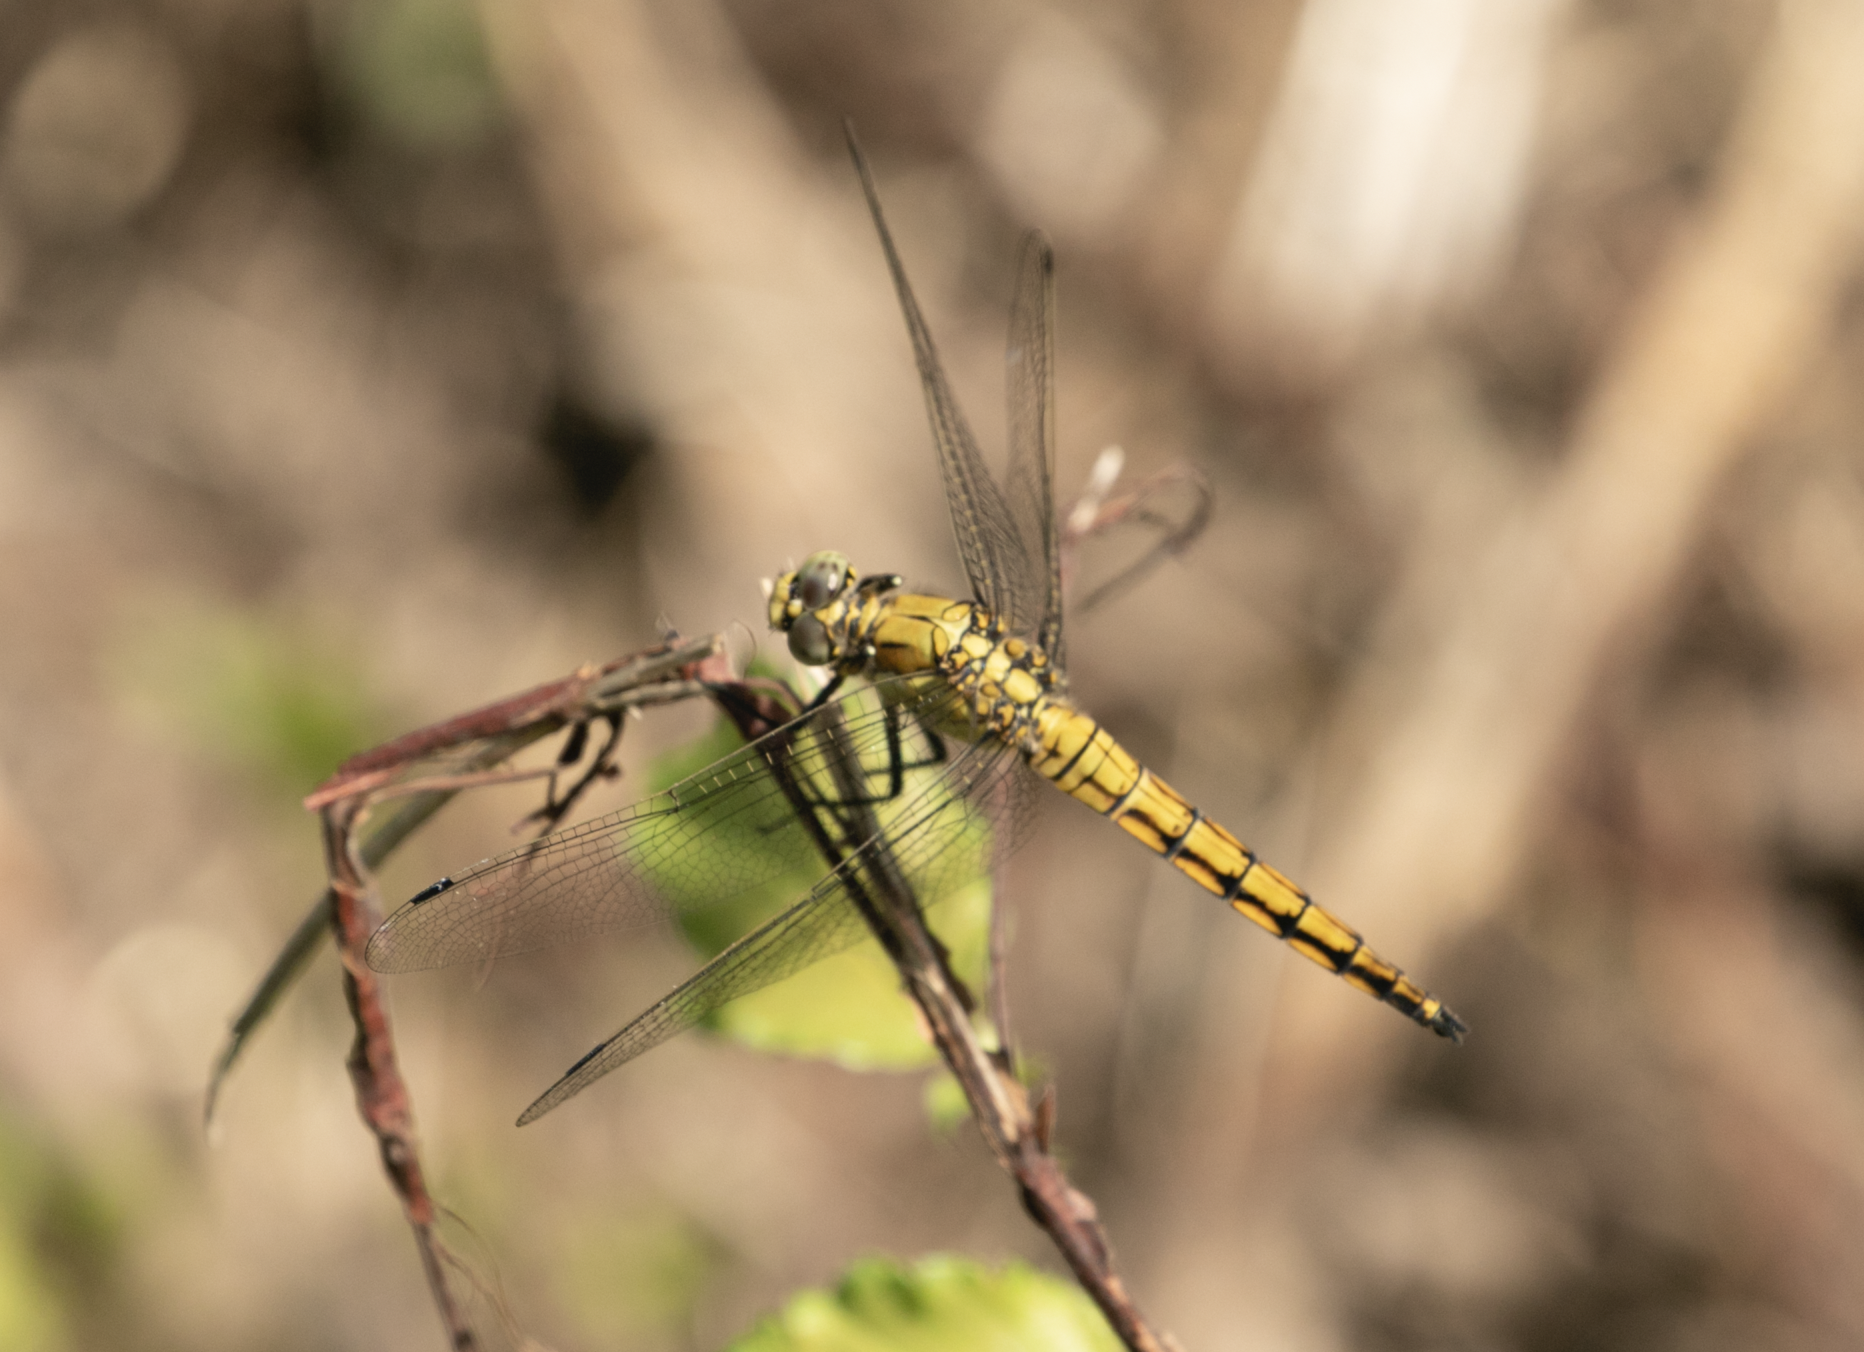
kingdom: Animalia
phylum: Arthropoda
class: Insecta
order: Odonata
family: Libellulidae
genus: Orthetrum
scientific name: Orthetrum cancellatum
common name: Black-tailed skimmer
